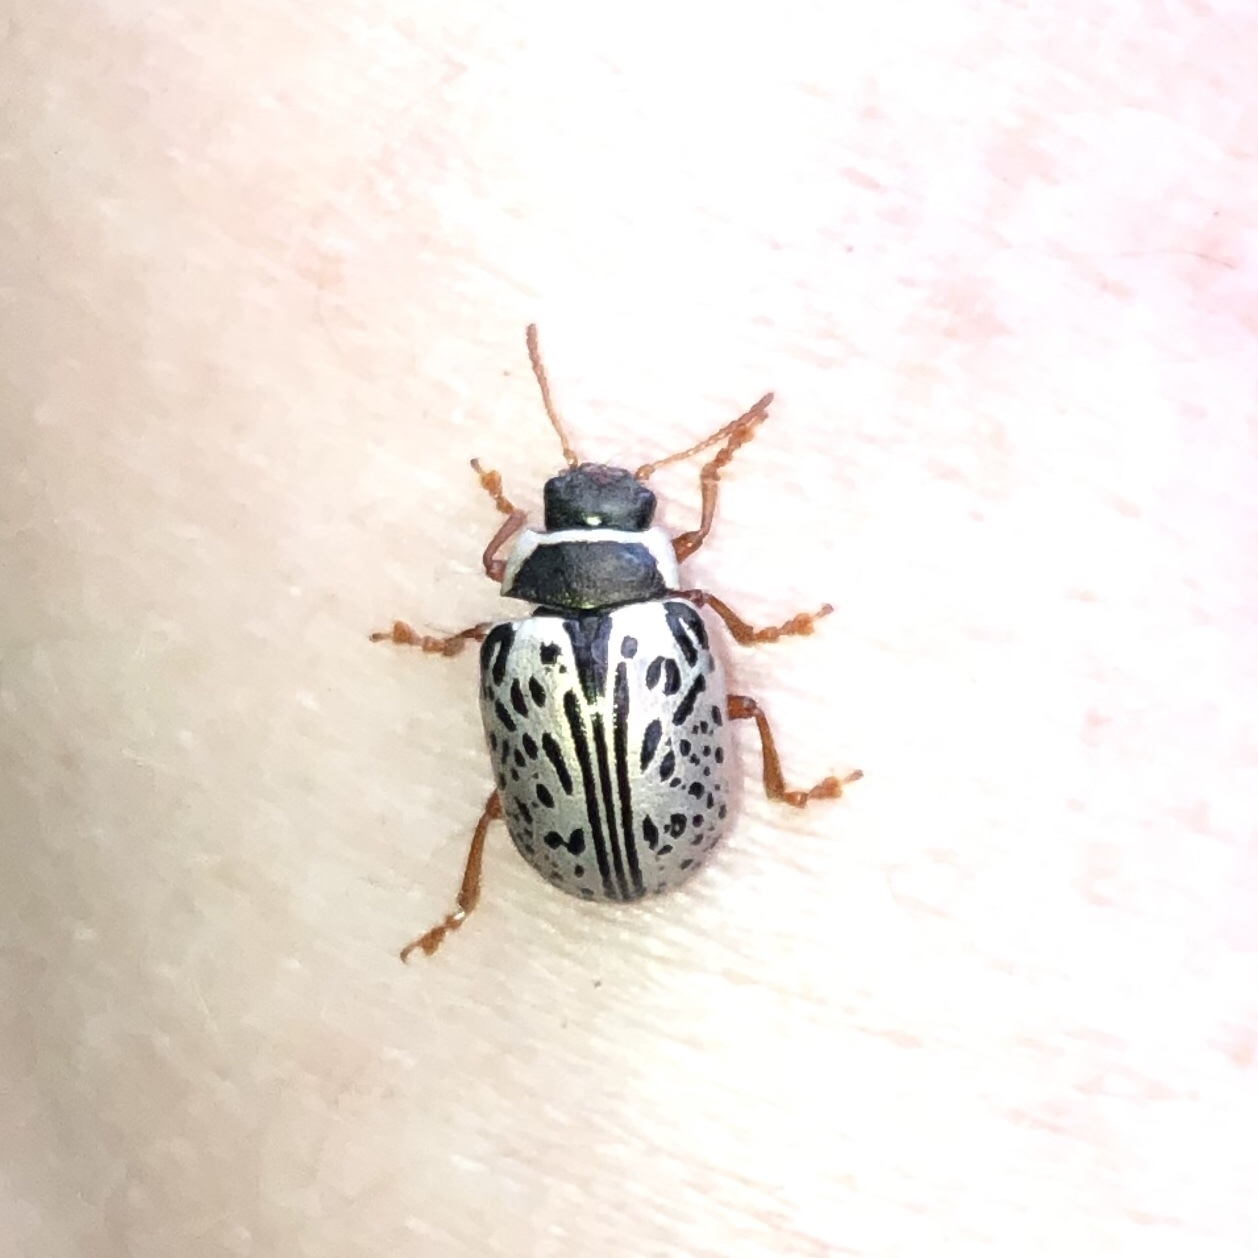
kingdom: Animalia
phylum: Arthropoda
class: Insecta
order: Coleoptera
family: Chrysomelidae
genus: Calligrapha
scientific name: Calligrapha multipunctata
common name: Common willow calligrapher beetle
